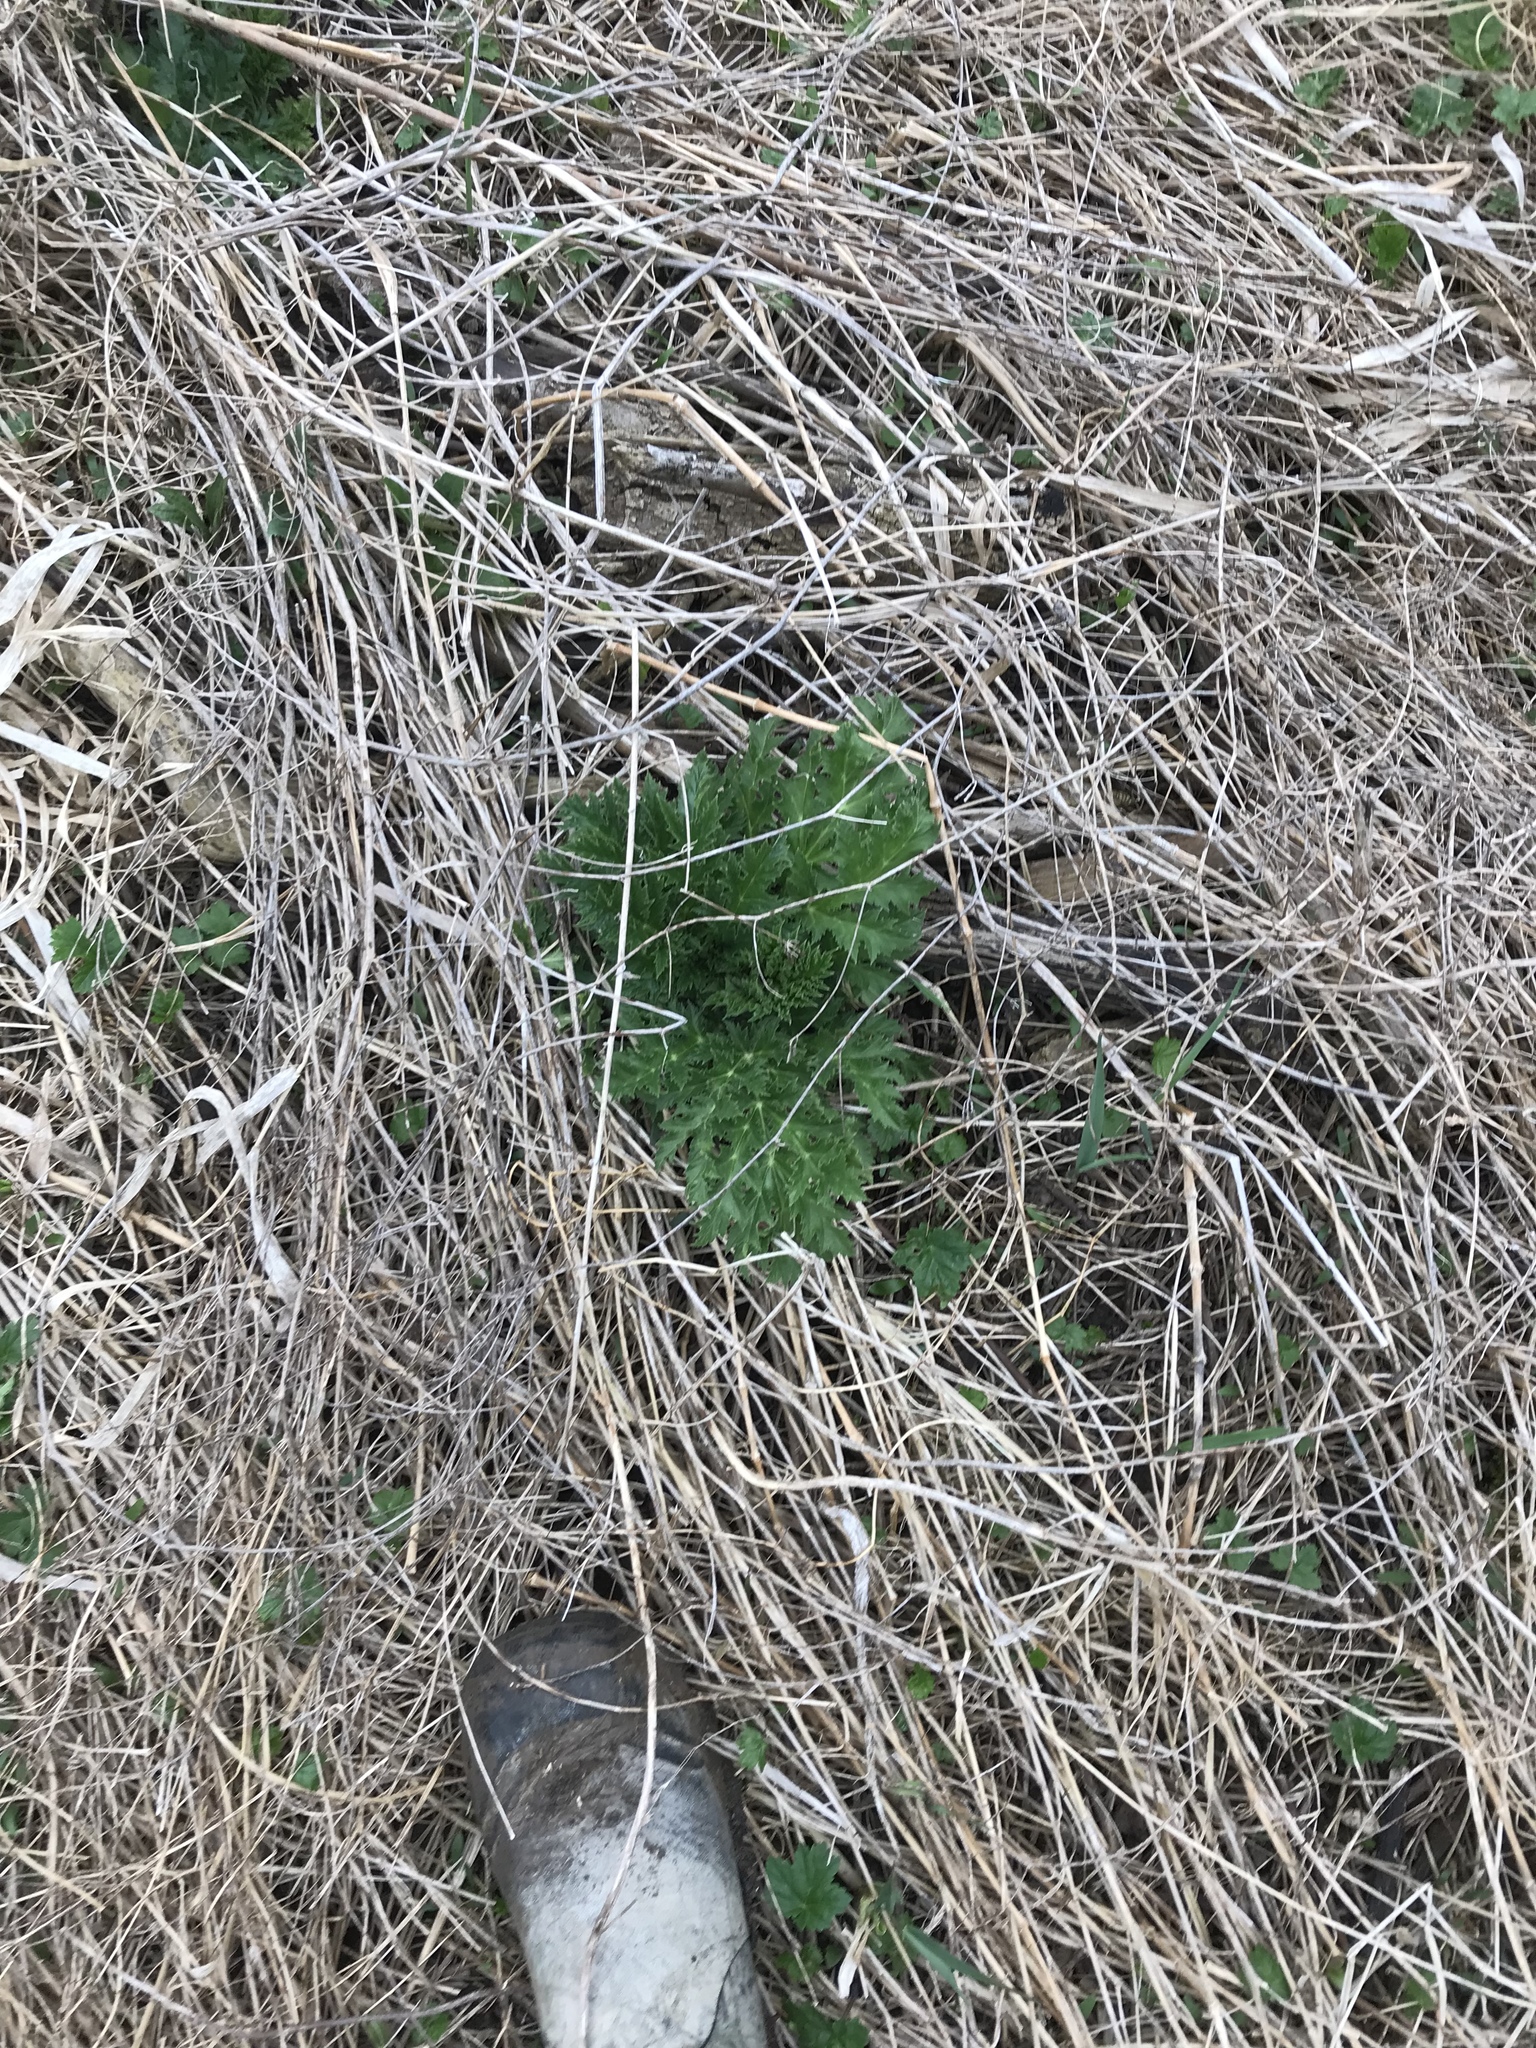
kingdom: Plantae
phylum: Tracheophyta
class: Magnoliopsida
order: Apiales
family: Apiaceae
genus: Heracleum
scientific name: Heracleum mantegazzianum
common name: Giant hogweed
